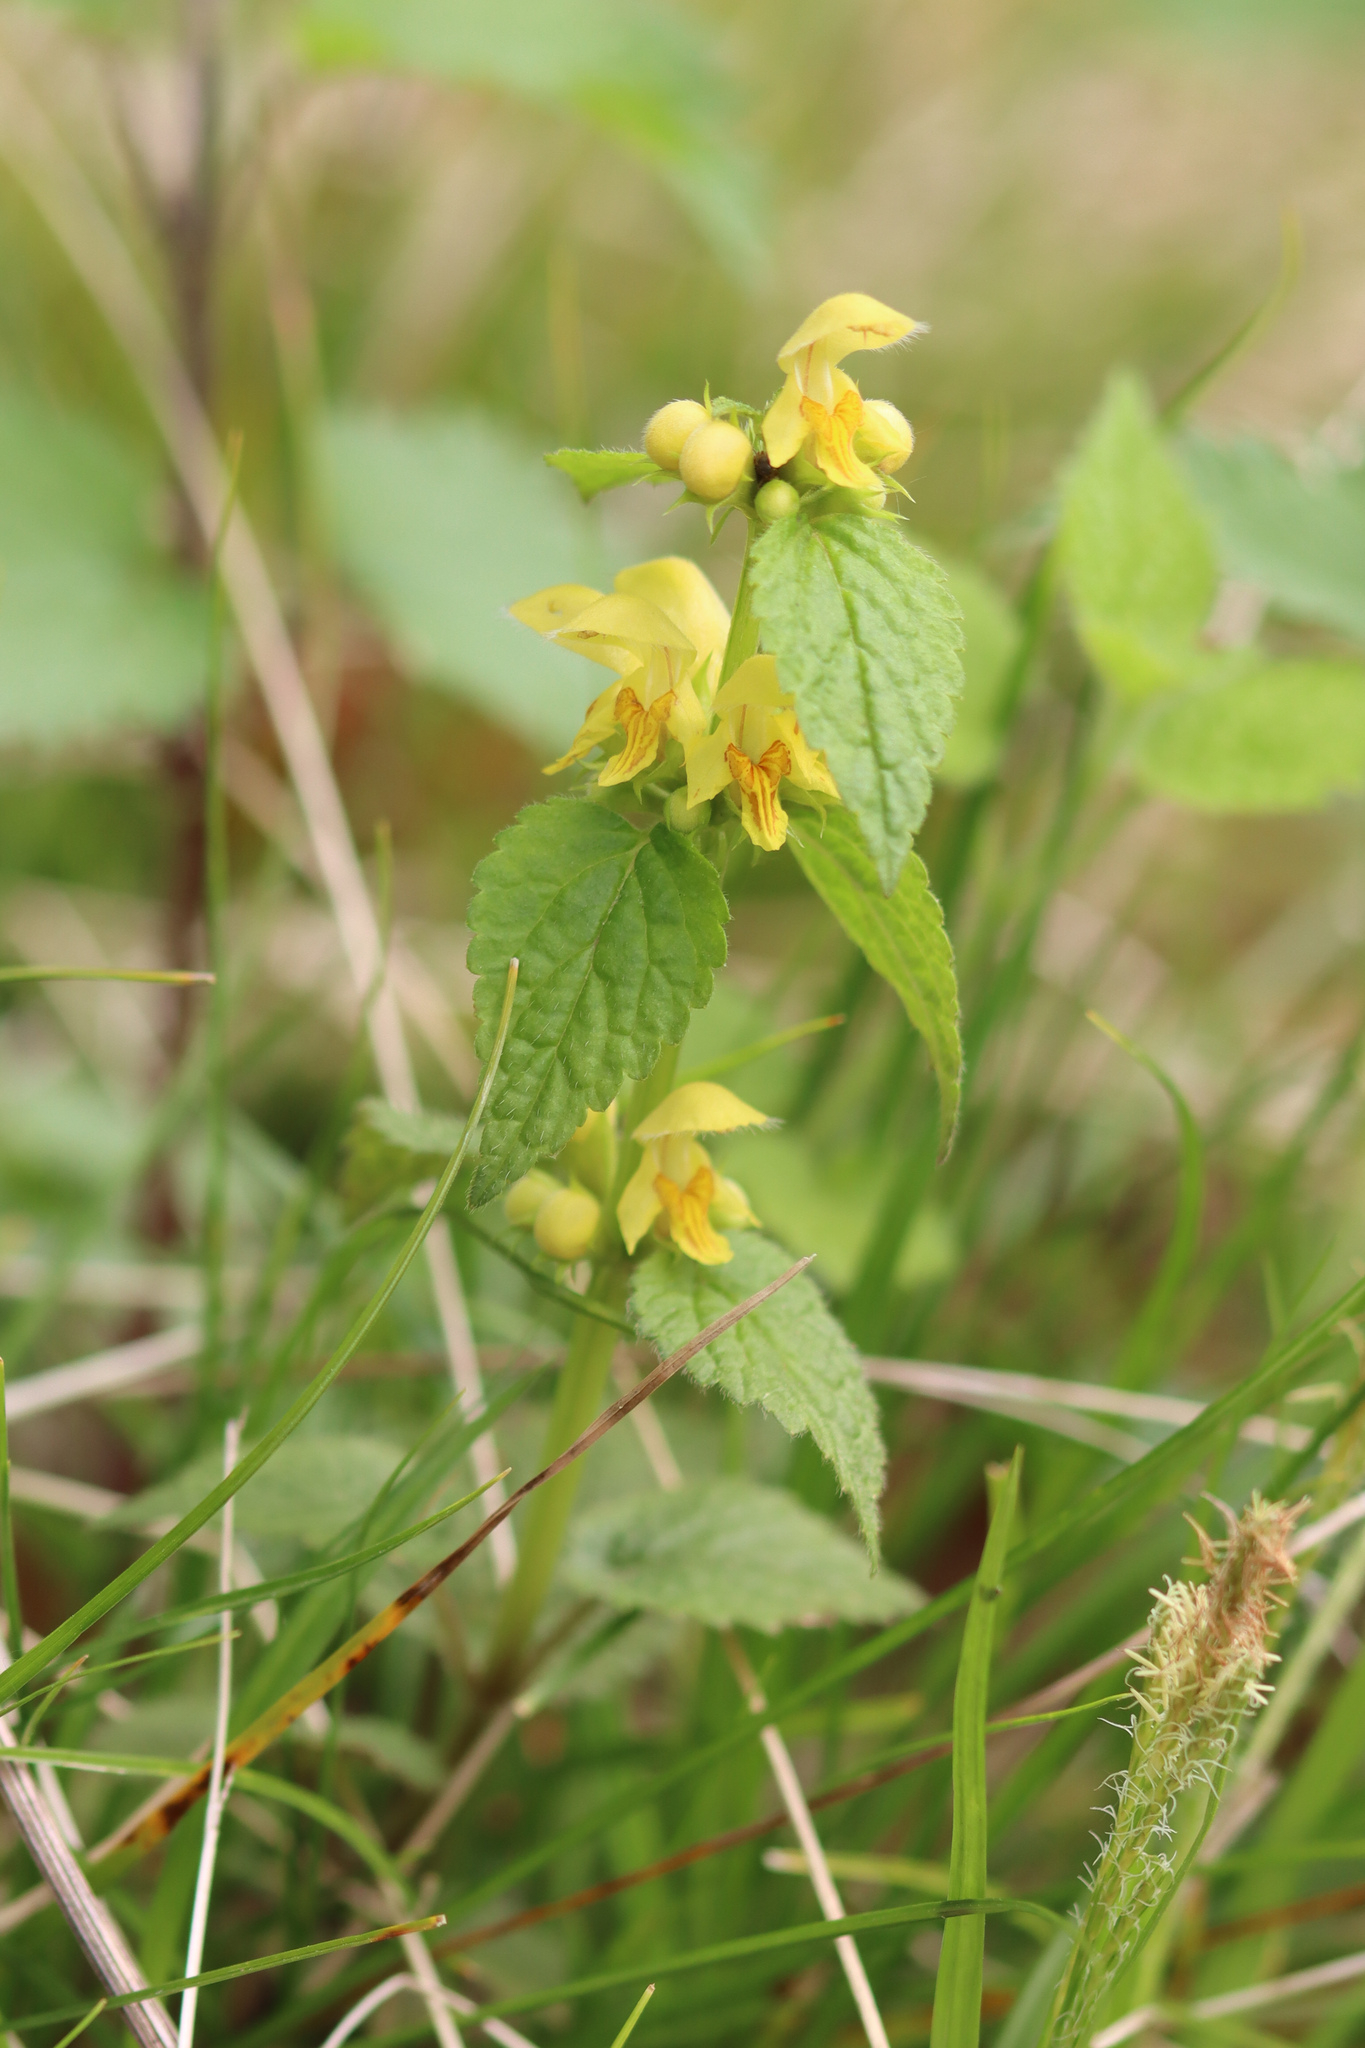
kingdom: Plantae
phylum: Tracheophyta
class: Magnoliopsida
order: Lamiales
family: Lamiaceae
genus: Lamium
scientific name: Lamium galeobdolon
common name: Yellow archangel
